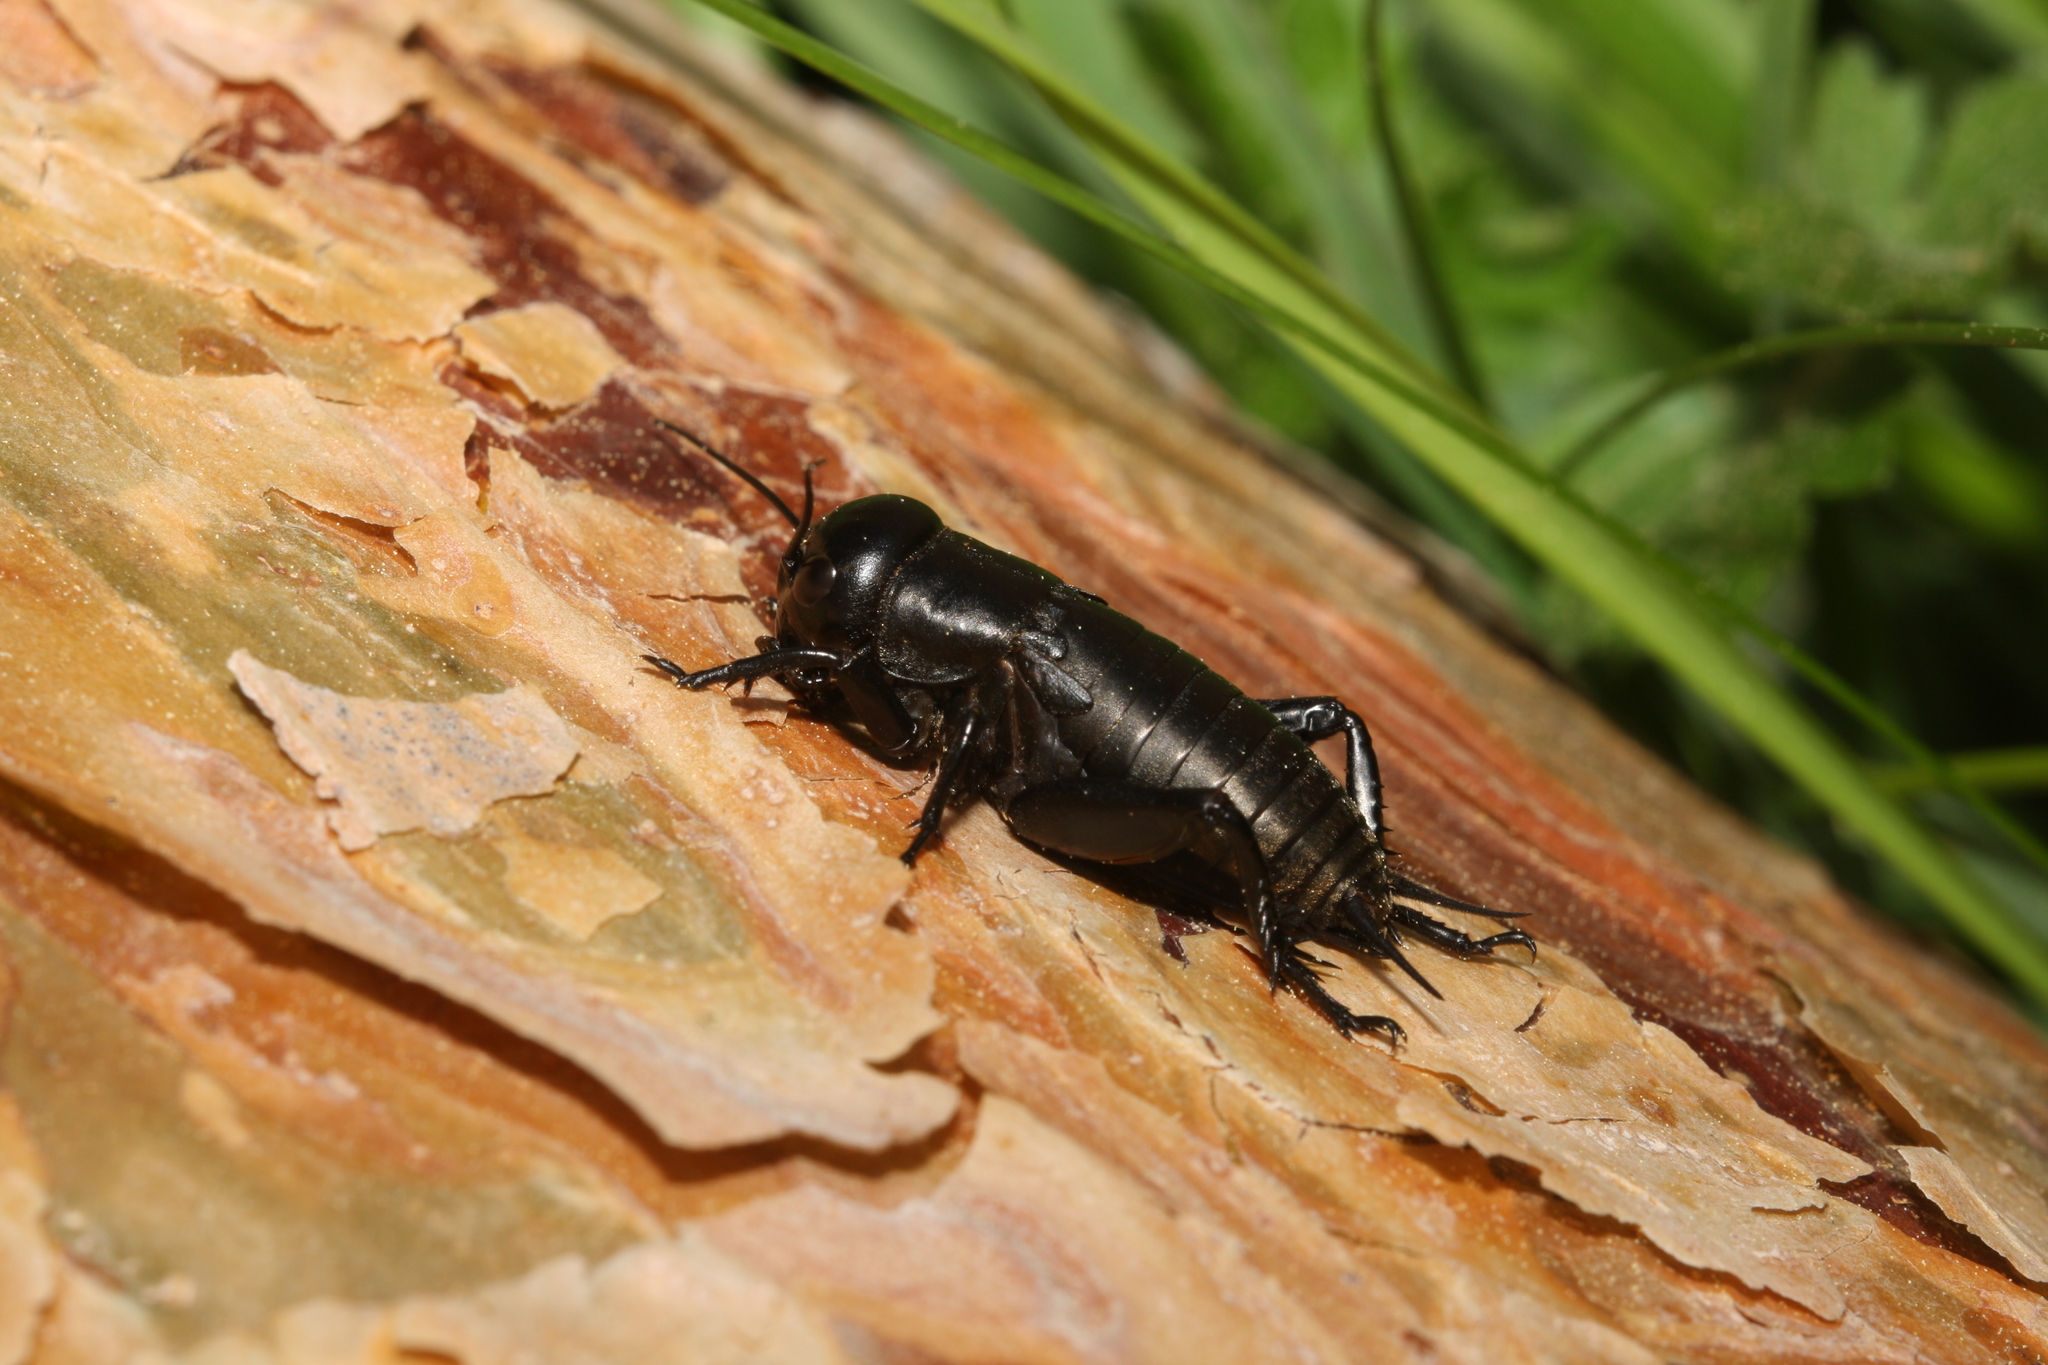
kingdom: Animalia
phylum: Arthropoda
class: Insecta
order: Orthoptera
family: Gryllidae
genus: Gryllus
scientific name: Gryllus campestris
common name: Field cricket
